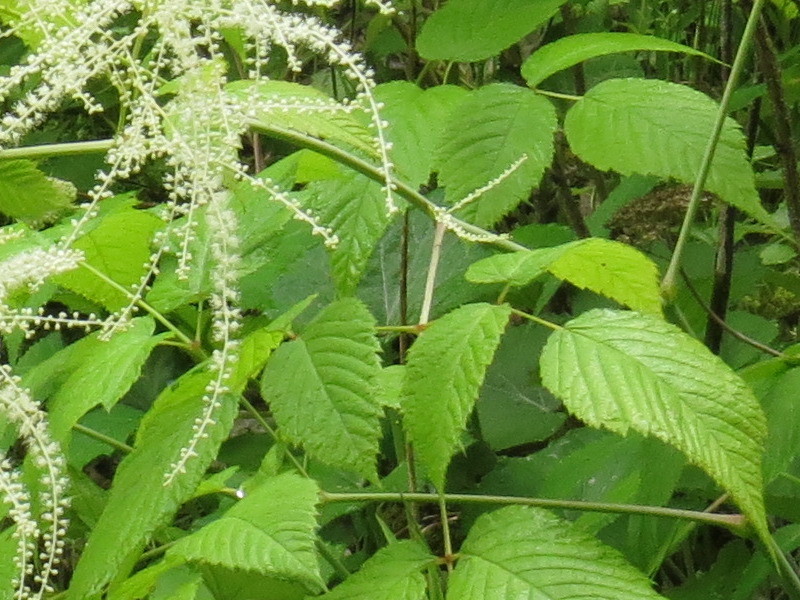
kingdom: Plantae
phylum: Tracheophyta
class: Magnoliopsida
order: Rosales
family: Rosaceae
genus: Aruncus
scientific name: Aruncus dioicus
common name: Buck's-beard
